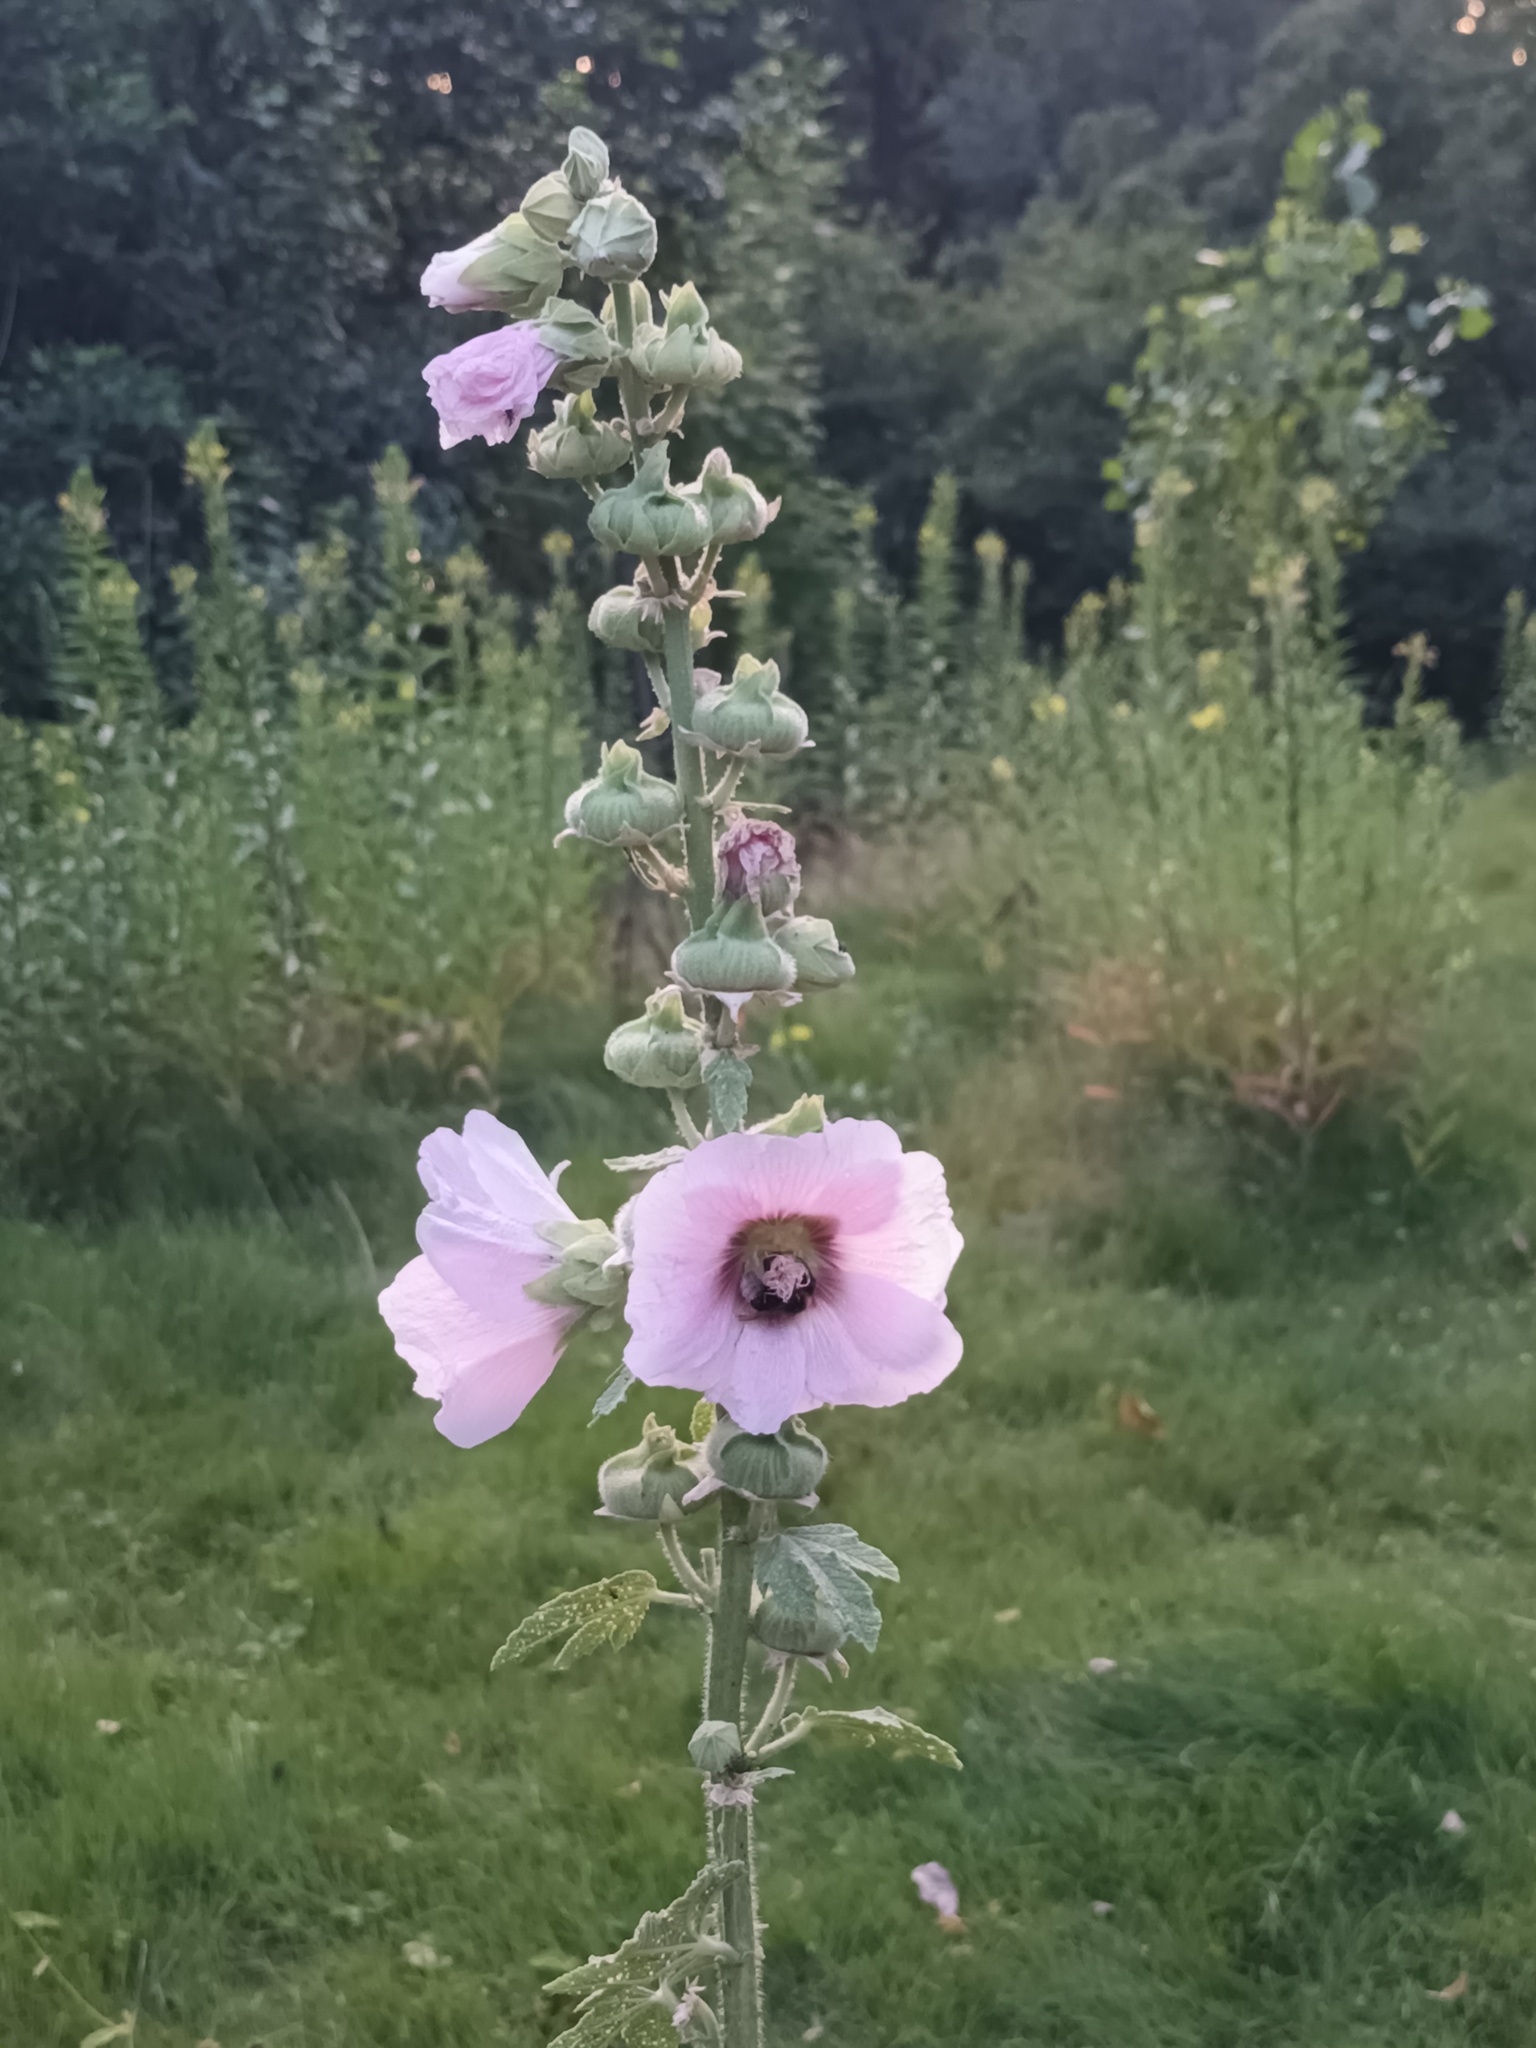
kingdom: Plantae
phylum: Tracheophyta
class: Magnoliopsida
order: Malvales
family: Malvaceae
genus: Alcea
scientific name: Alcea rosea
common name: Hollyhock
